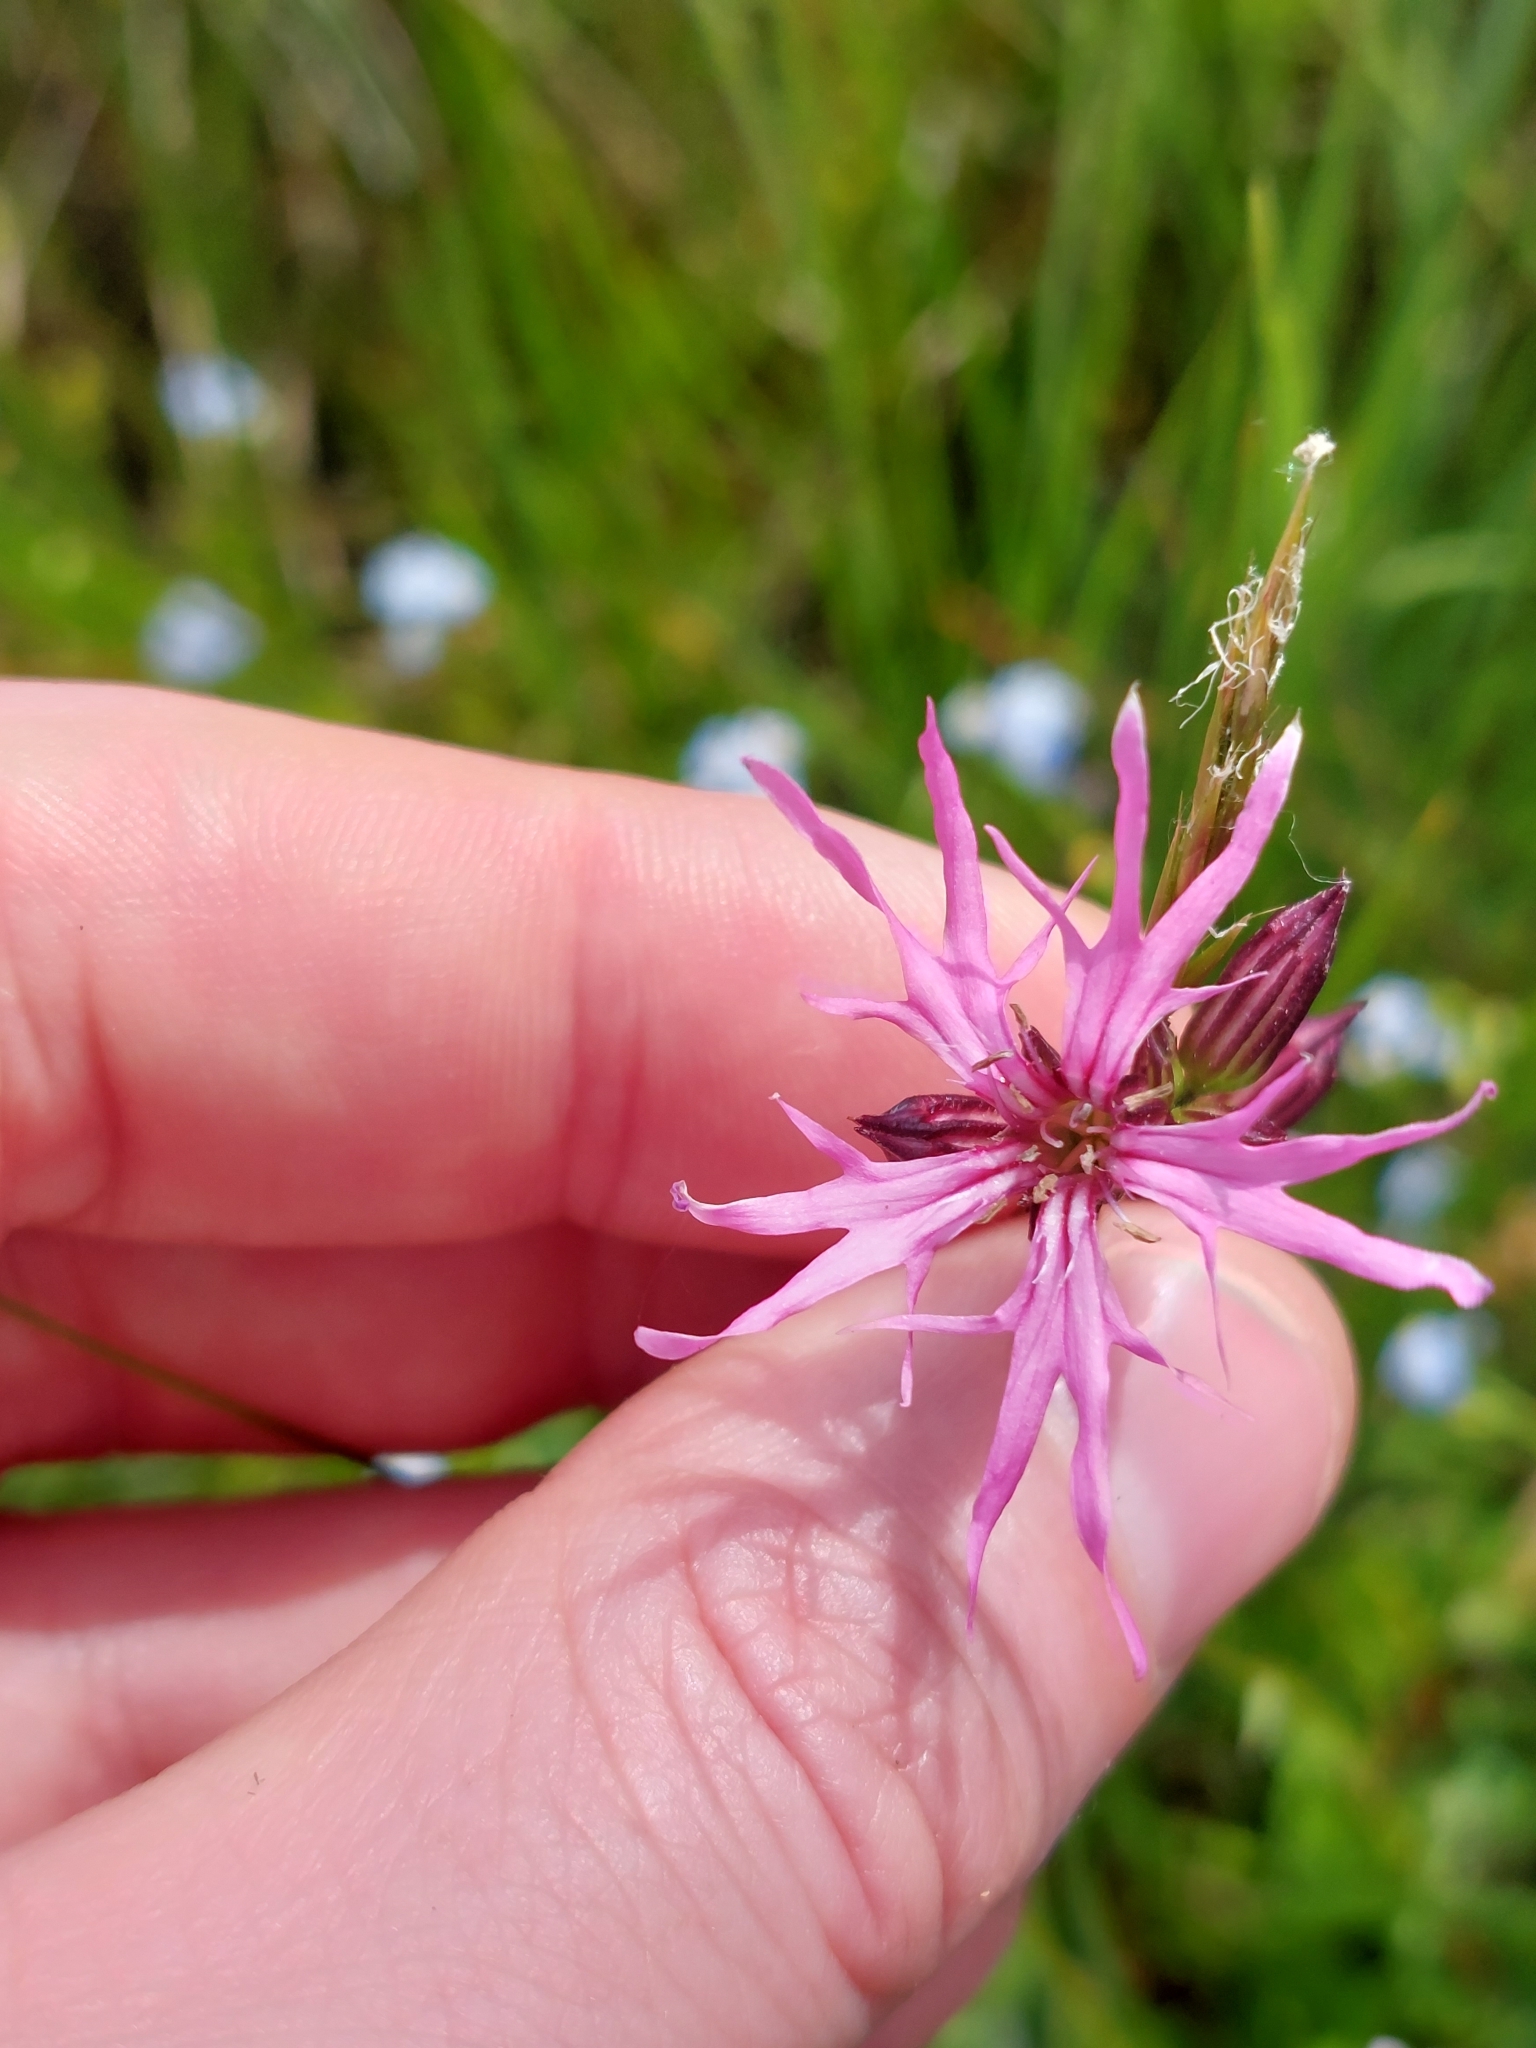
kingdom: Plantae
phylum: Tracheophyta
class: Magnoliopsida
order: Caryophyllales
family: Caryophyllaceae
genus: Silene
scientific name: Silene flos-cuculi
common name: Ragged-robin
